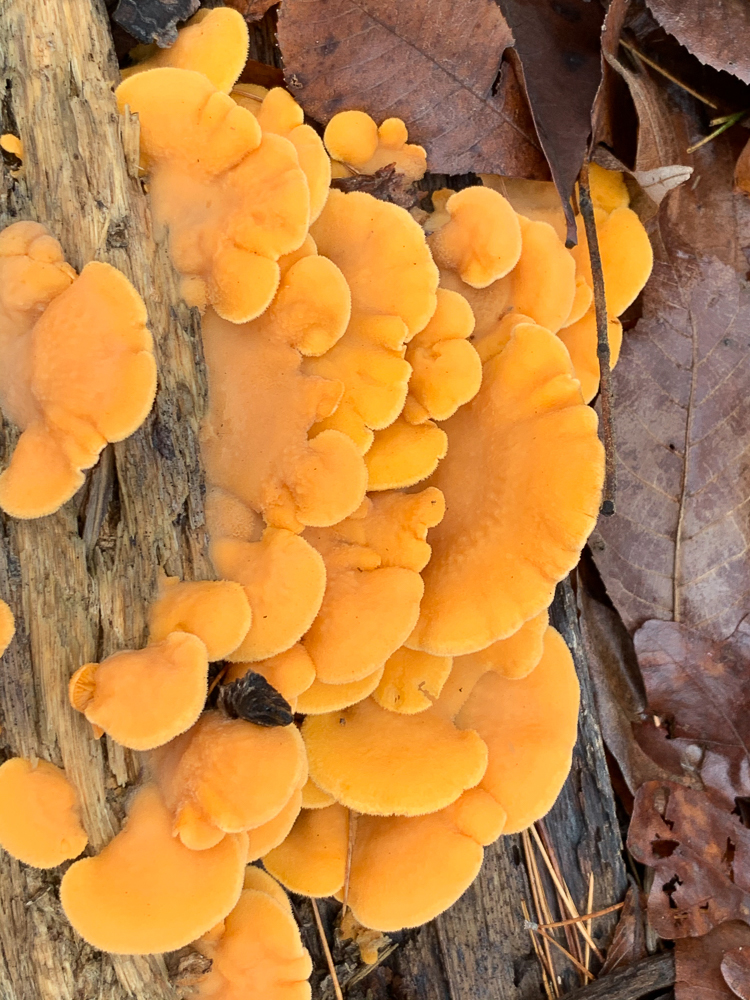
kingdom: Fungi
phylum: Basidiomycota
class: Agaricomycetes
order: Agaricales
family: Phyllotopsidaceae
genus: Phyllotopsis
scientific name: Phyllotopsis nidulans
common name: Orange mock oyster
